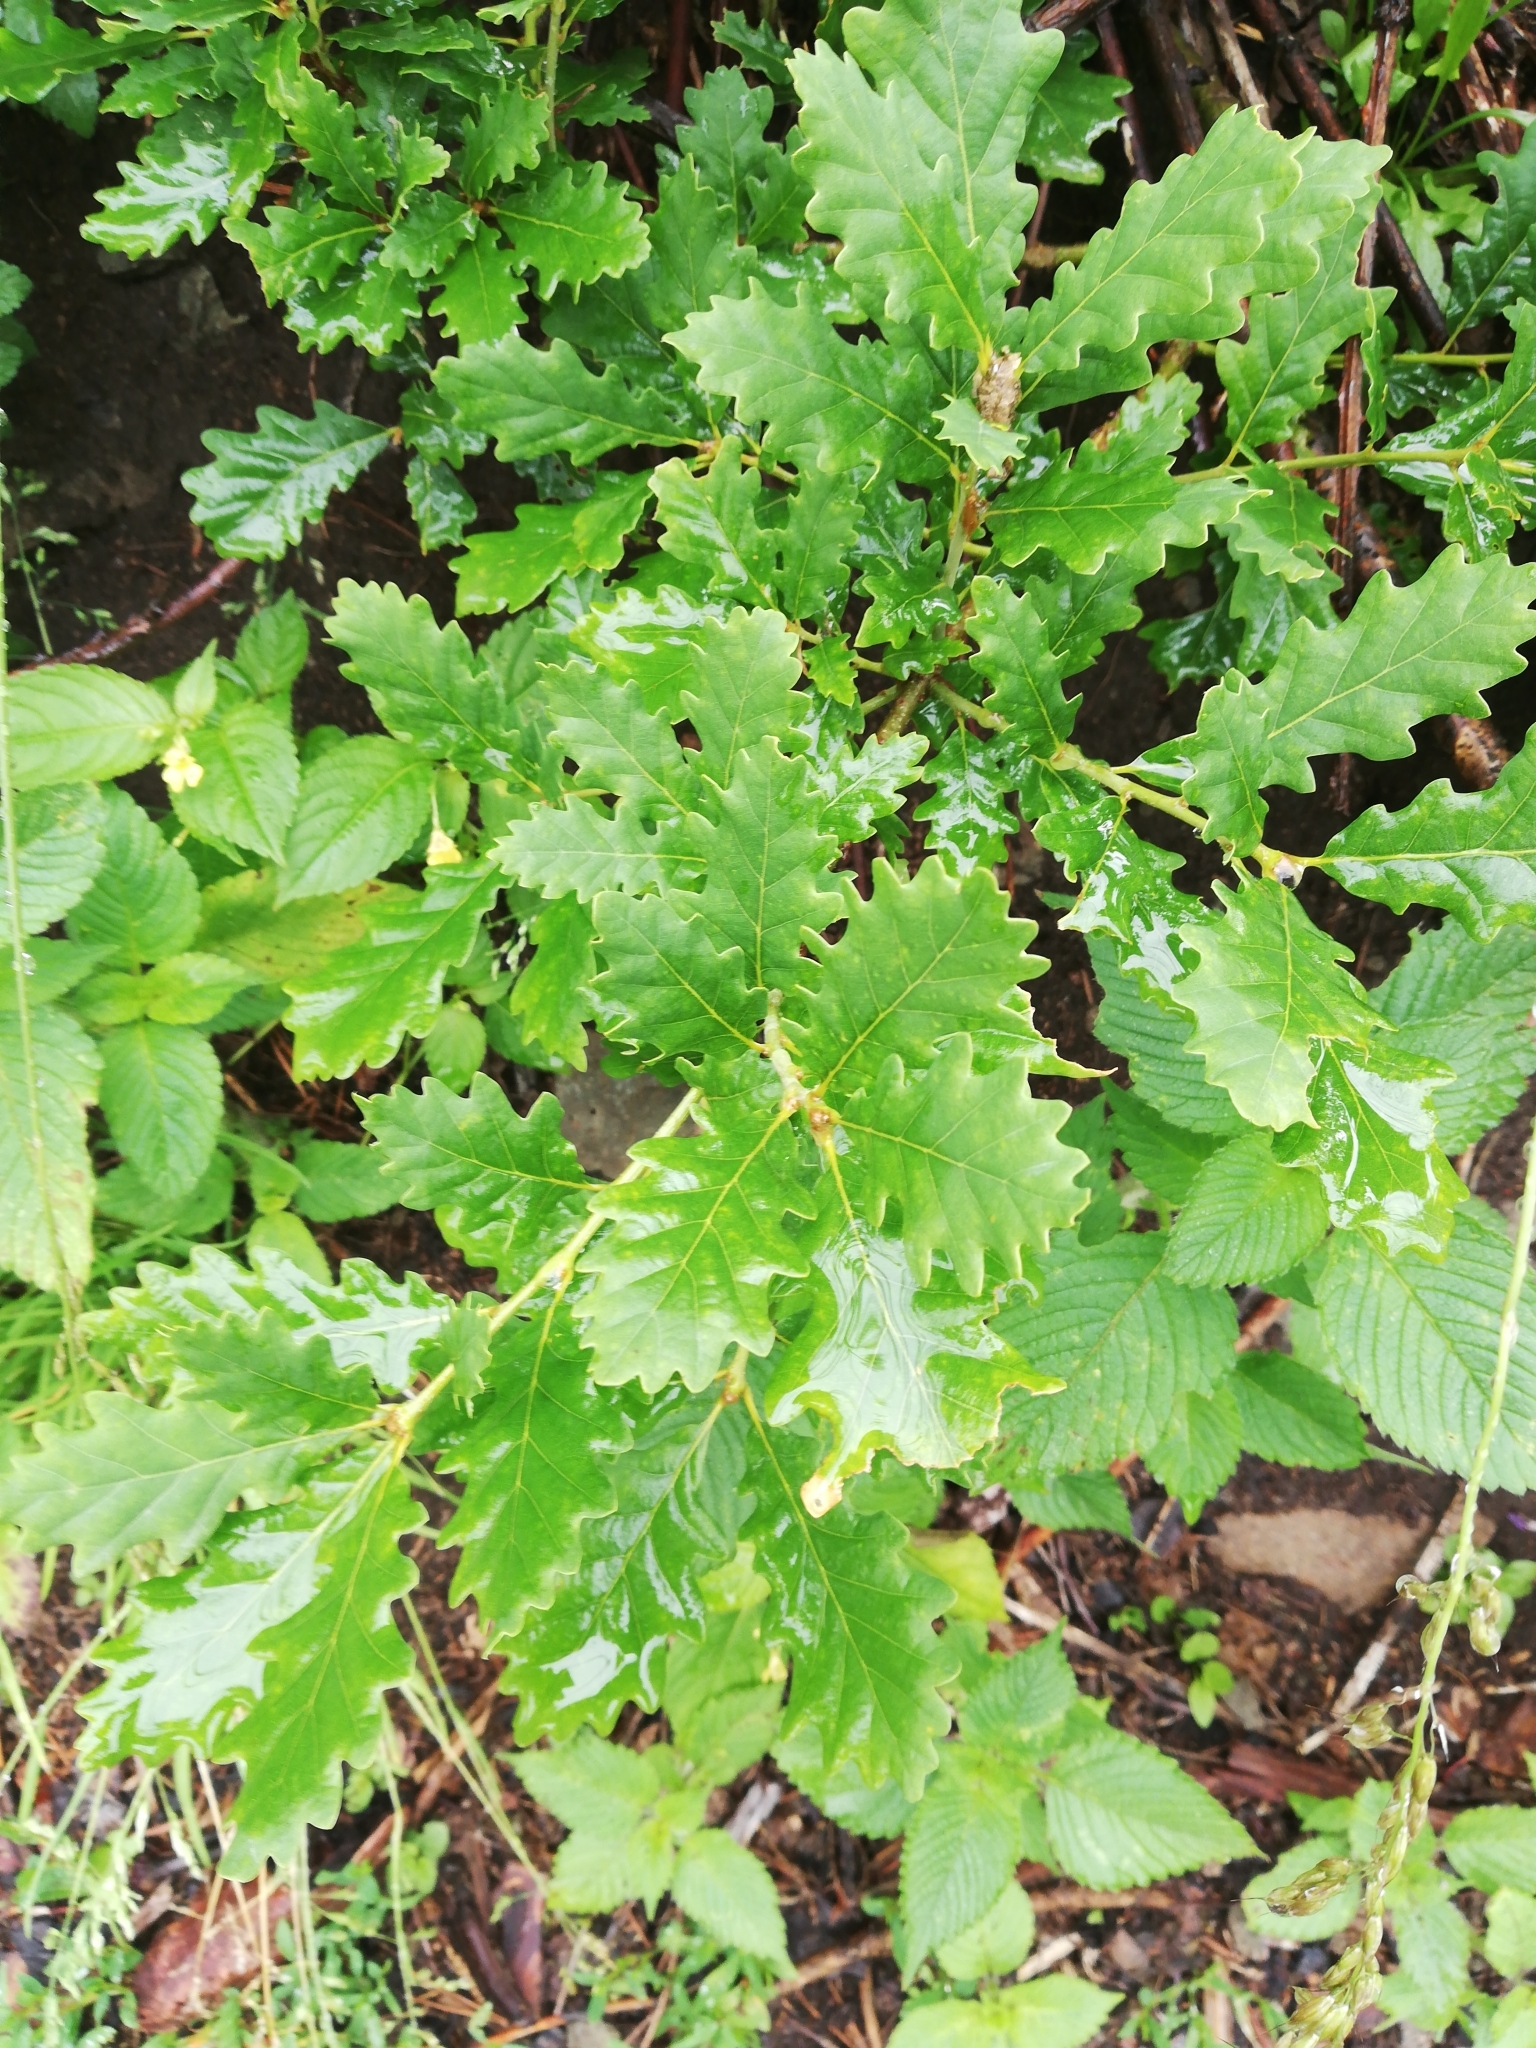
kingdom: Plantae
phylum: Tracheophyta
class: Magnoliopsida
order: Fagales
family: Fagaceae
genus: Quercus
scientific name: Quercus pubescens
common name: Downy oak
